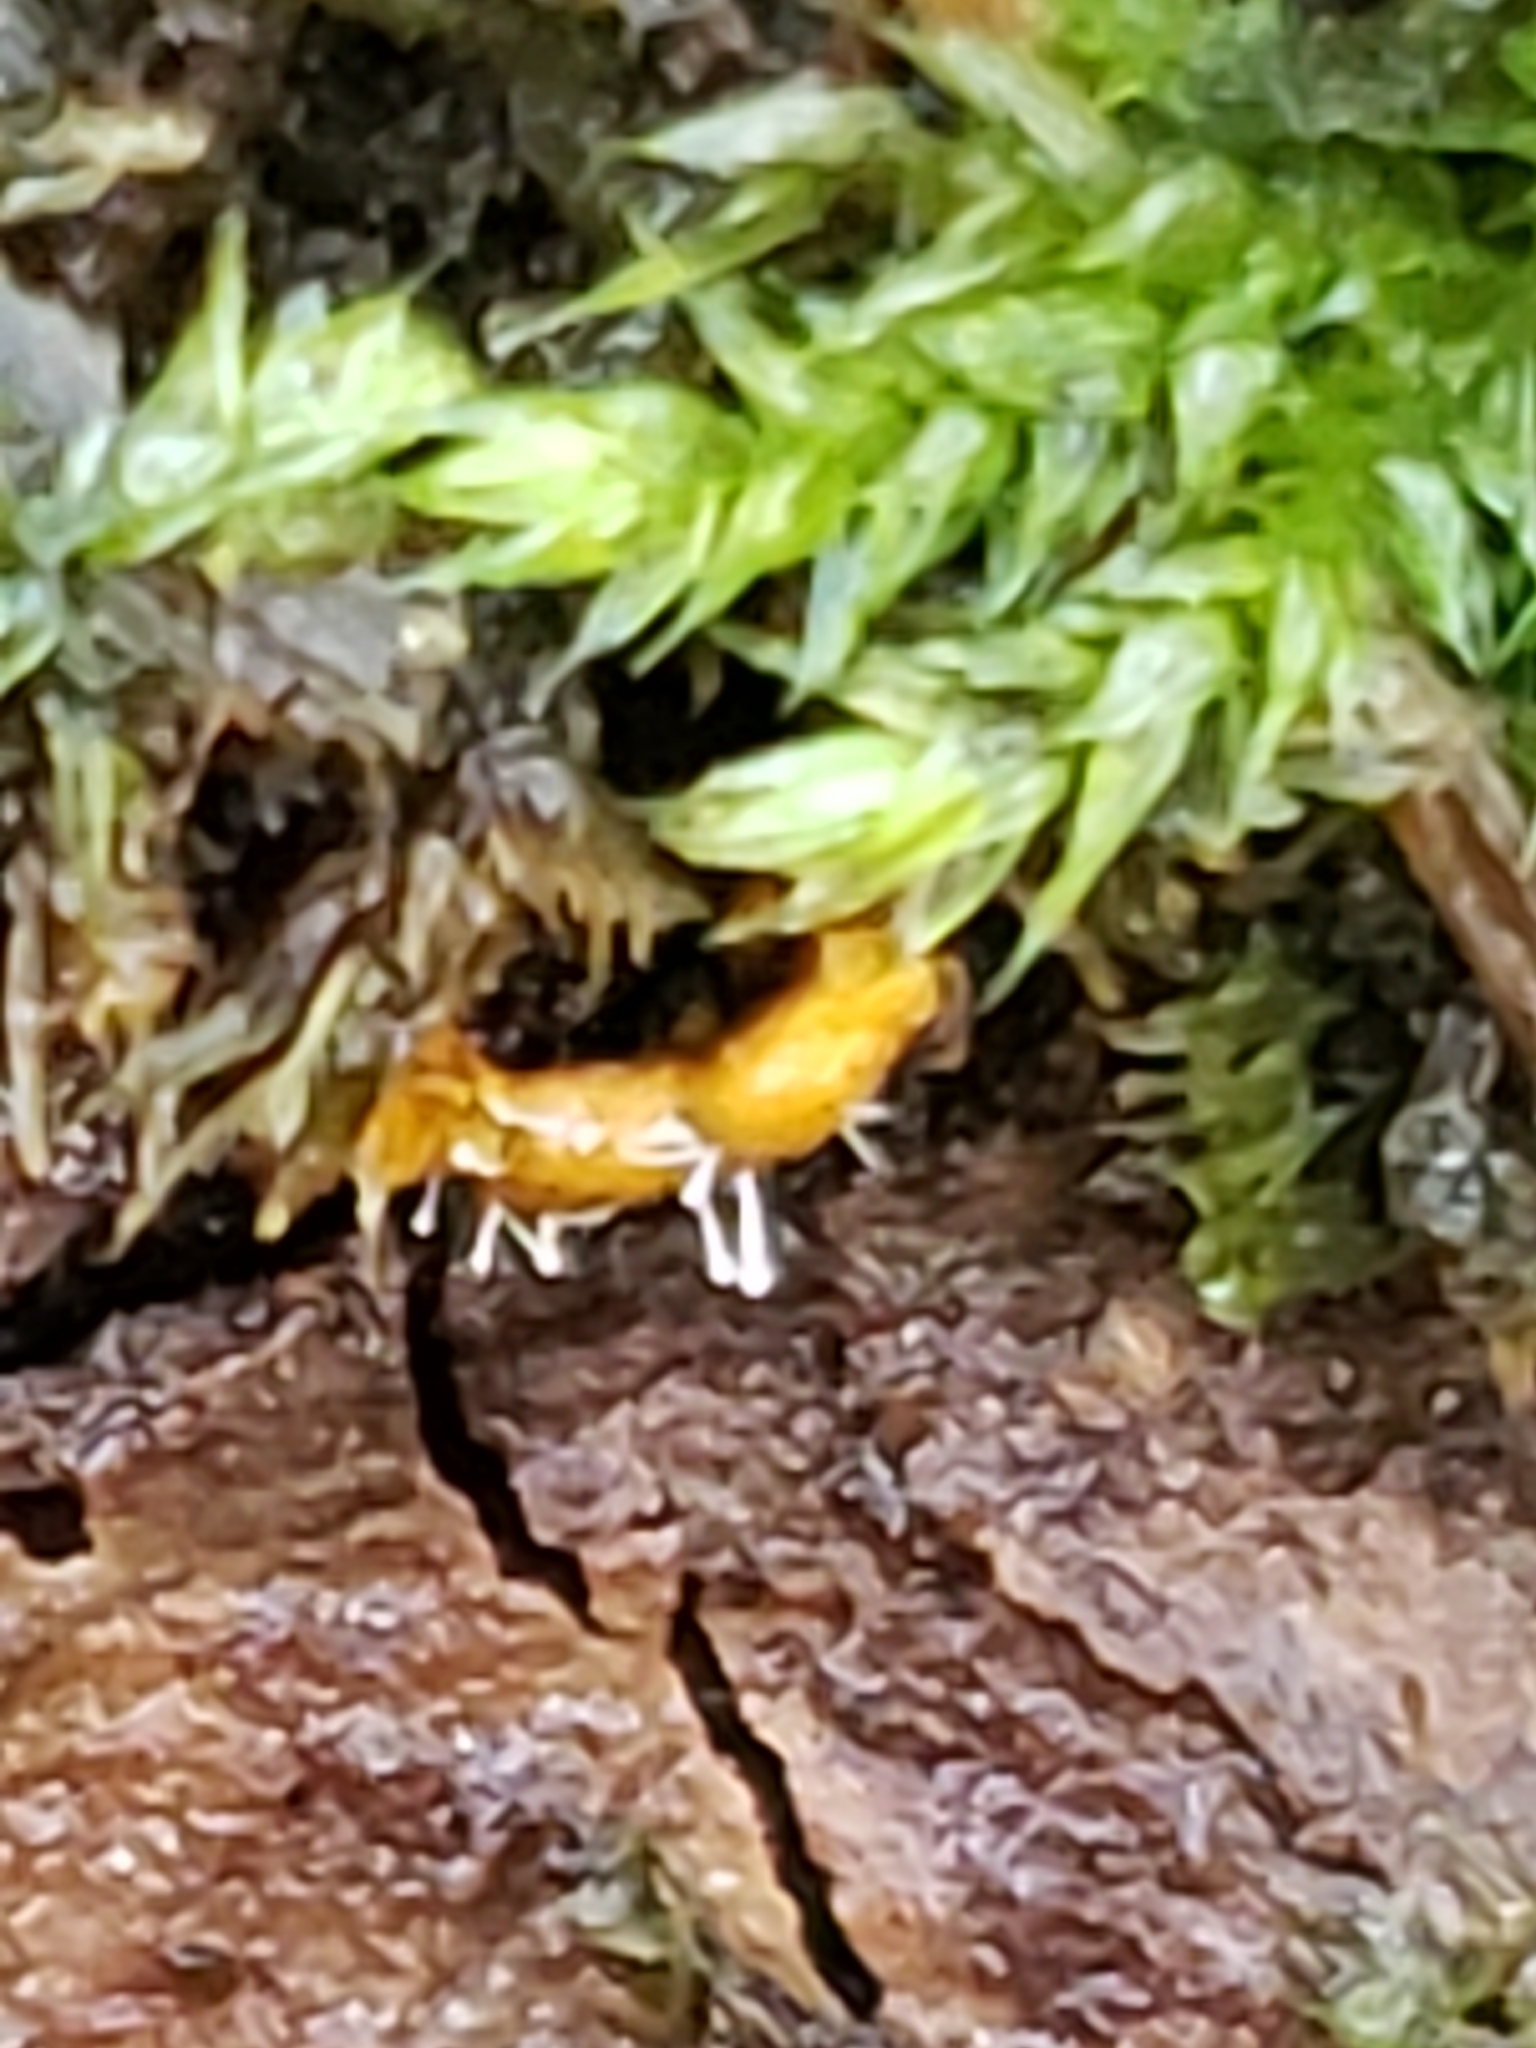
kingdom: Fungi
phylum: Ascomycota
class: Sordariomycetes
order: Hypocreales
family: Ophiocordycipitaceae
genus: Polycephalomyces
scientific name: Polycephalomyces tomentosus
